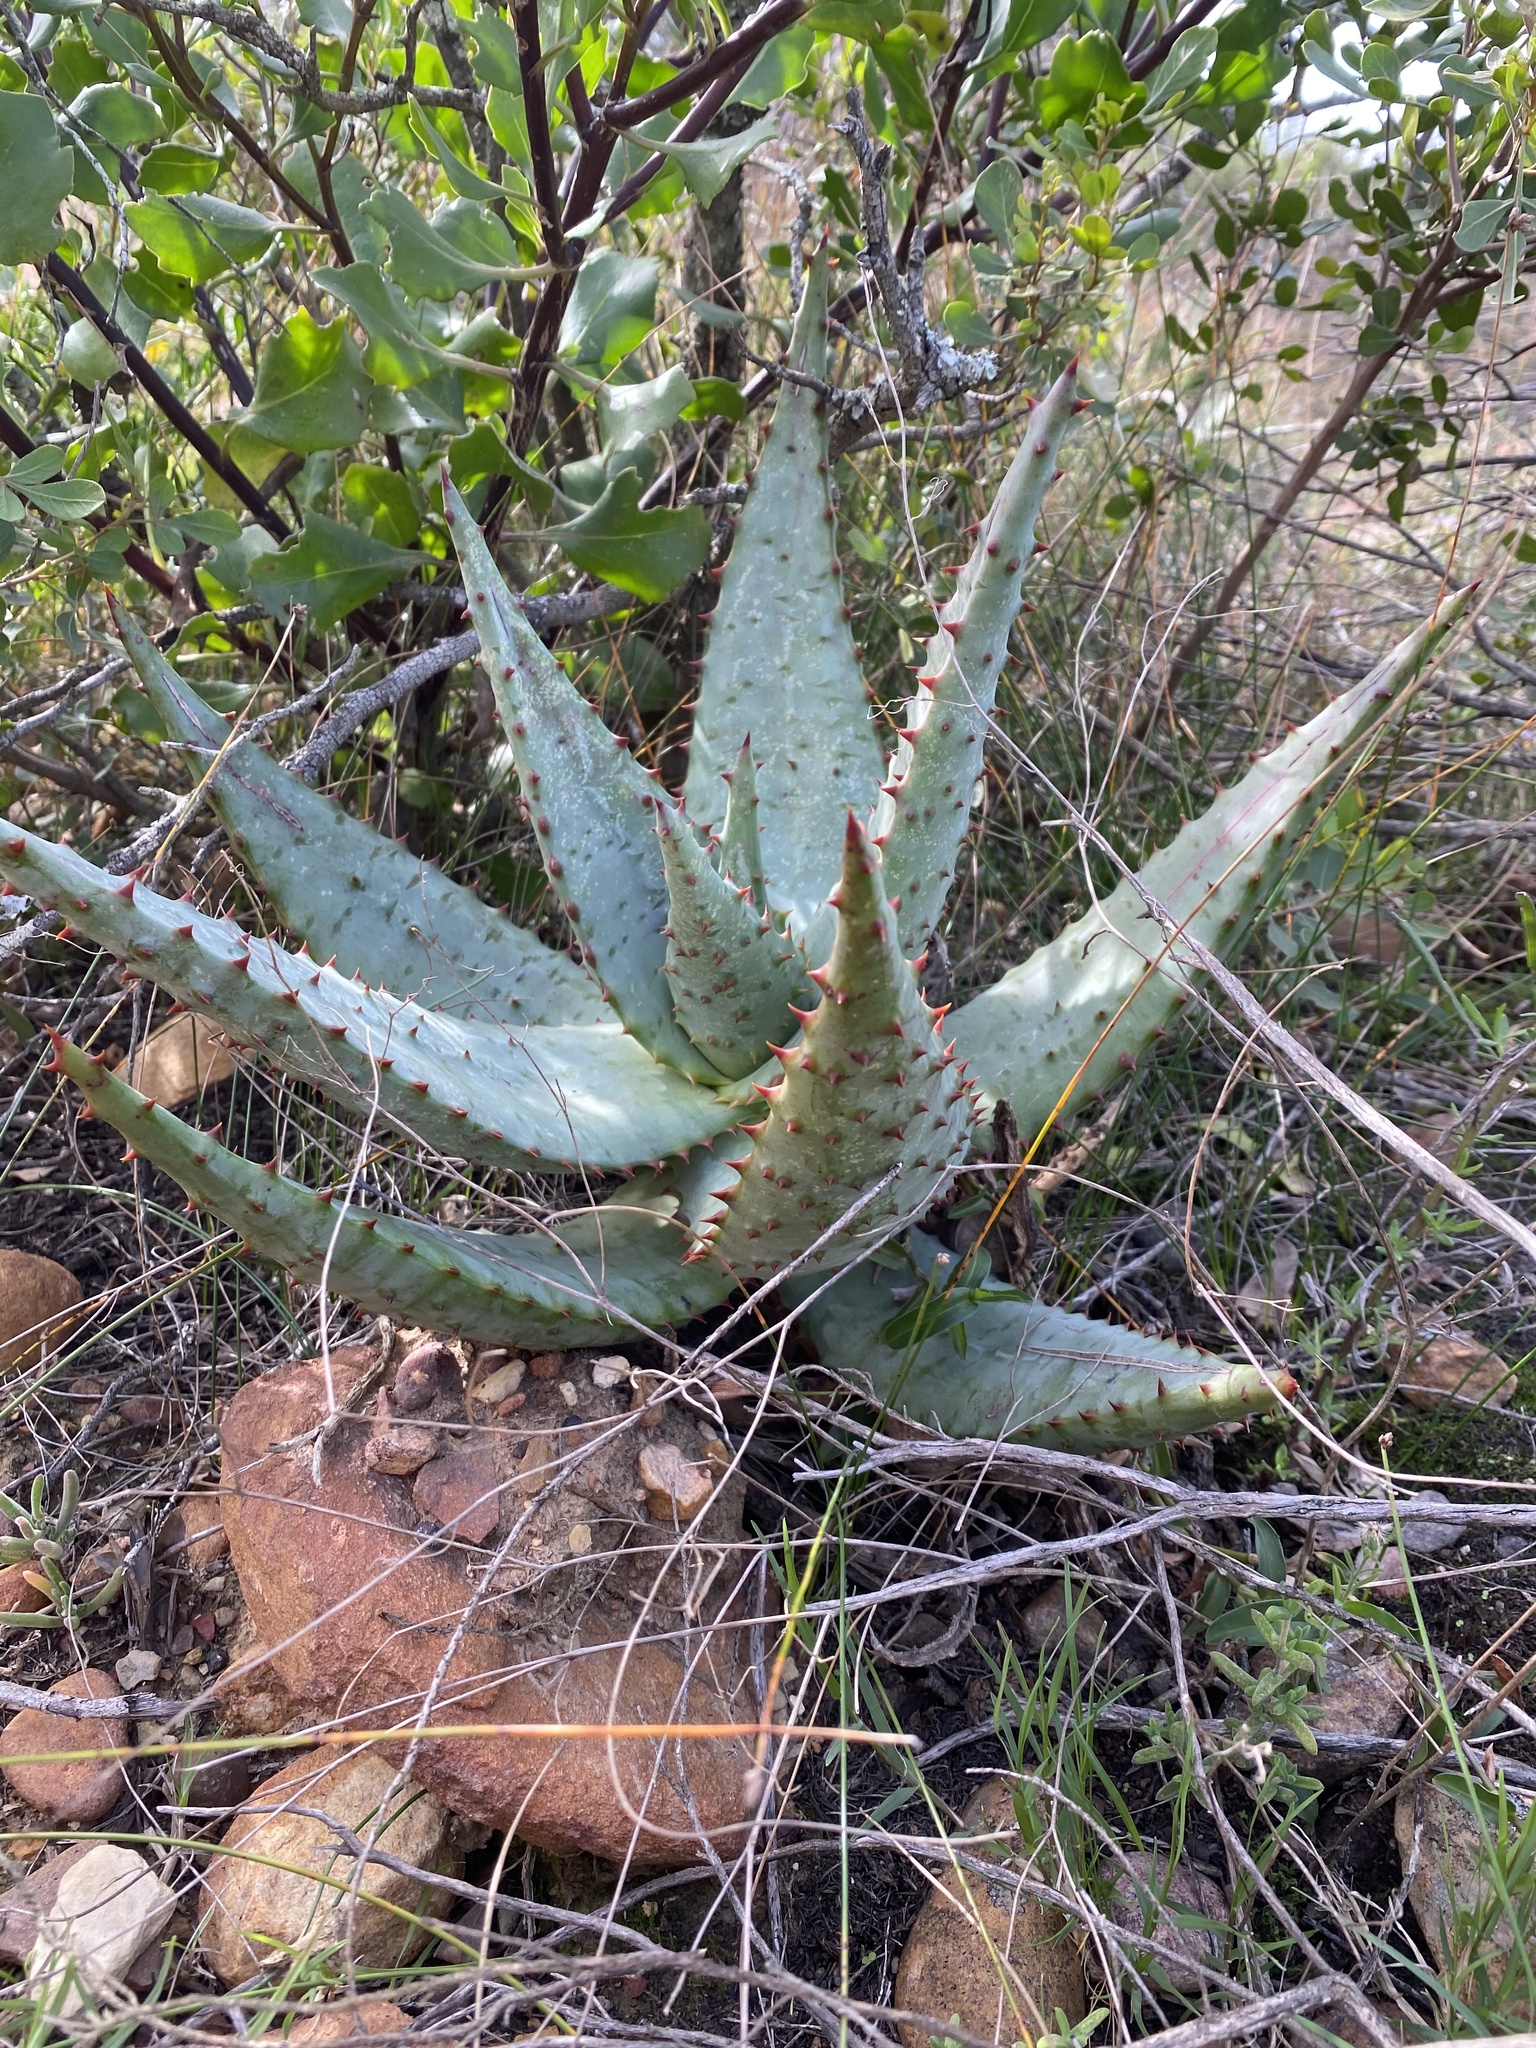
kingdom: Plantae
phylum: Tracheophyta
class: Liliopsida
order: Asparagales
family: Asphodelaceae
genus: Aloe
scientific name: Aloe ferox
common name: Bitter aloe
